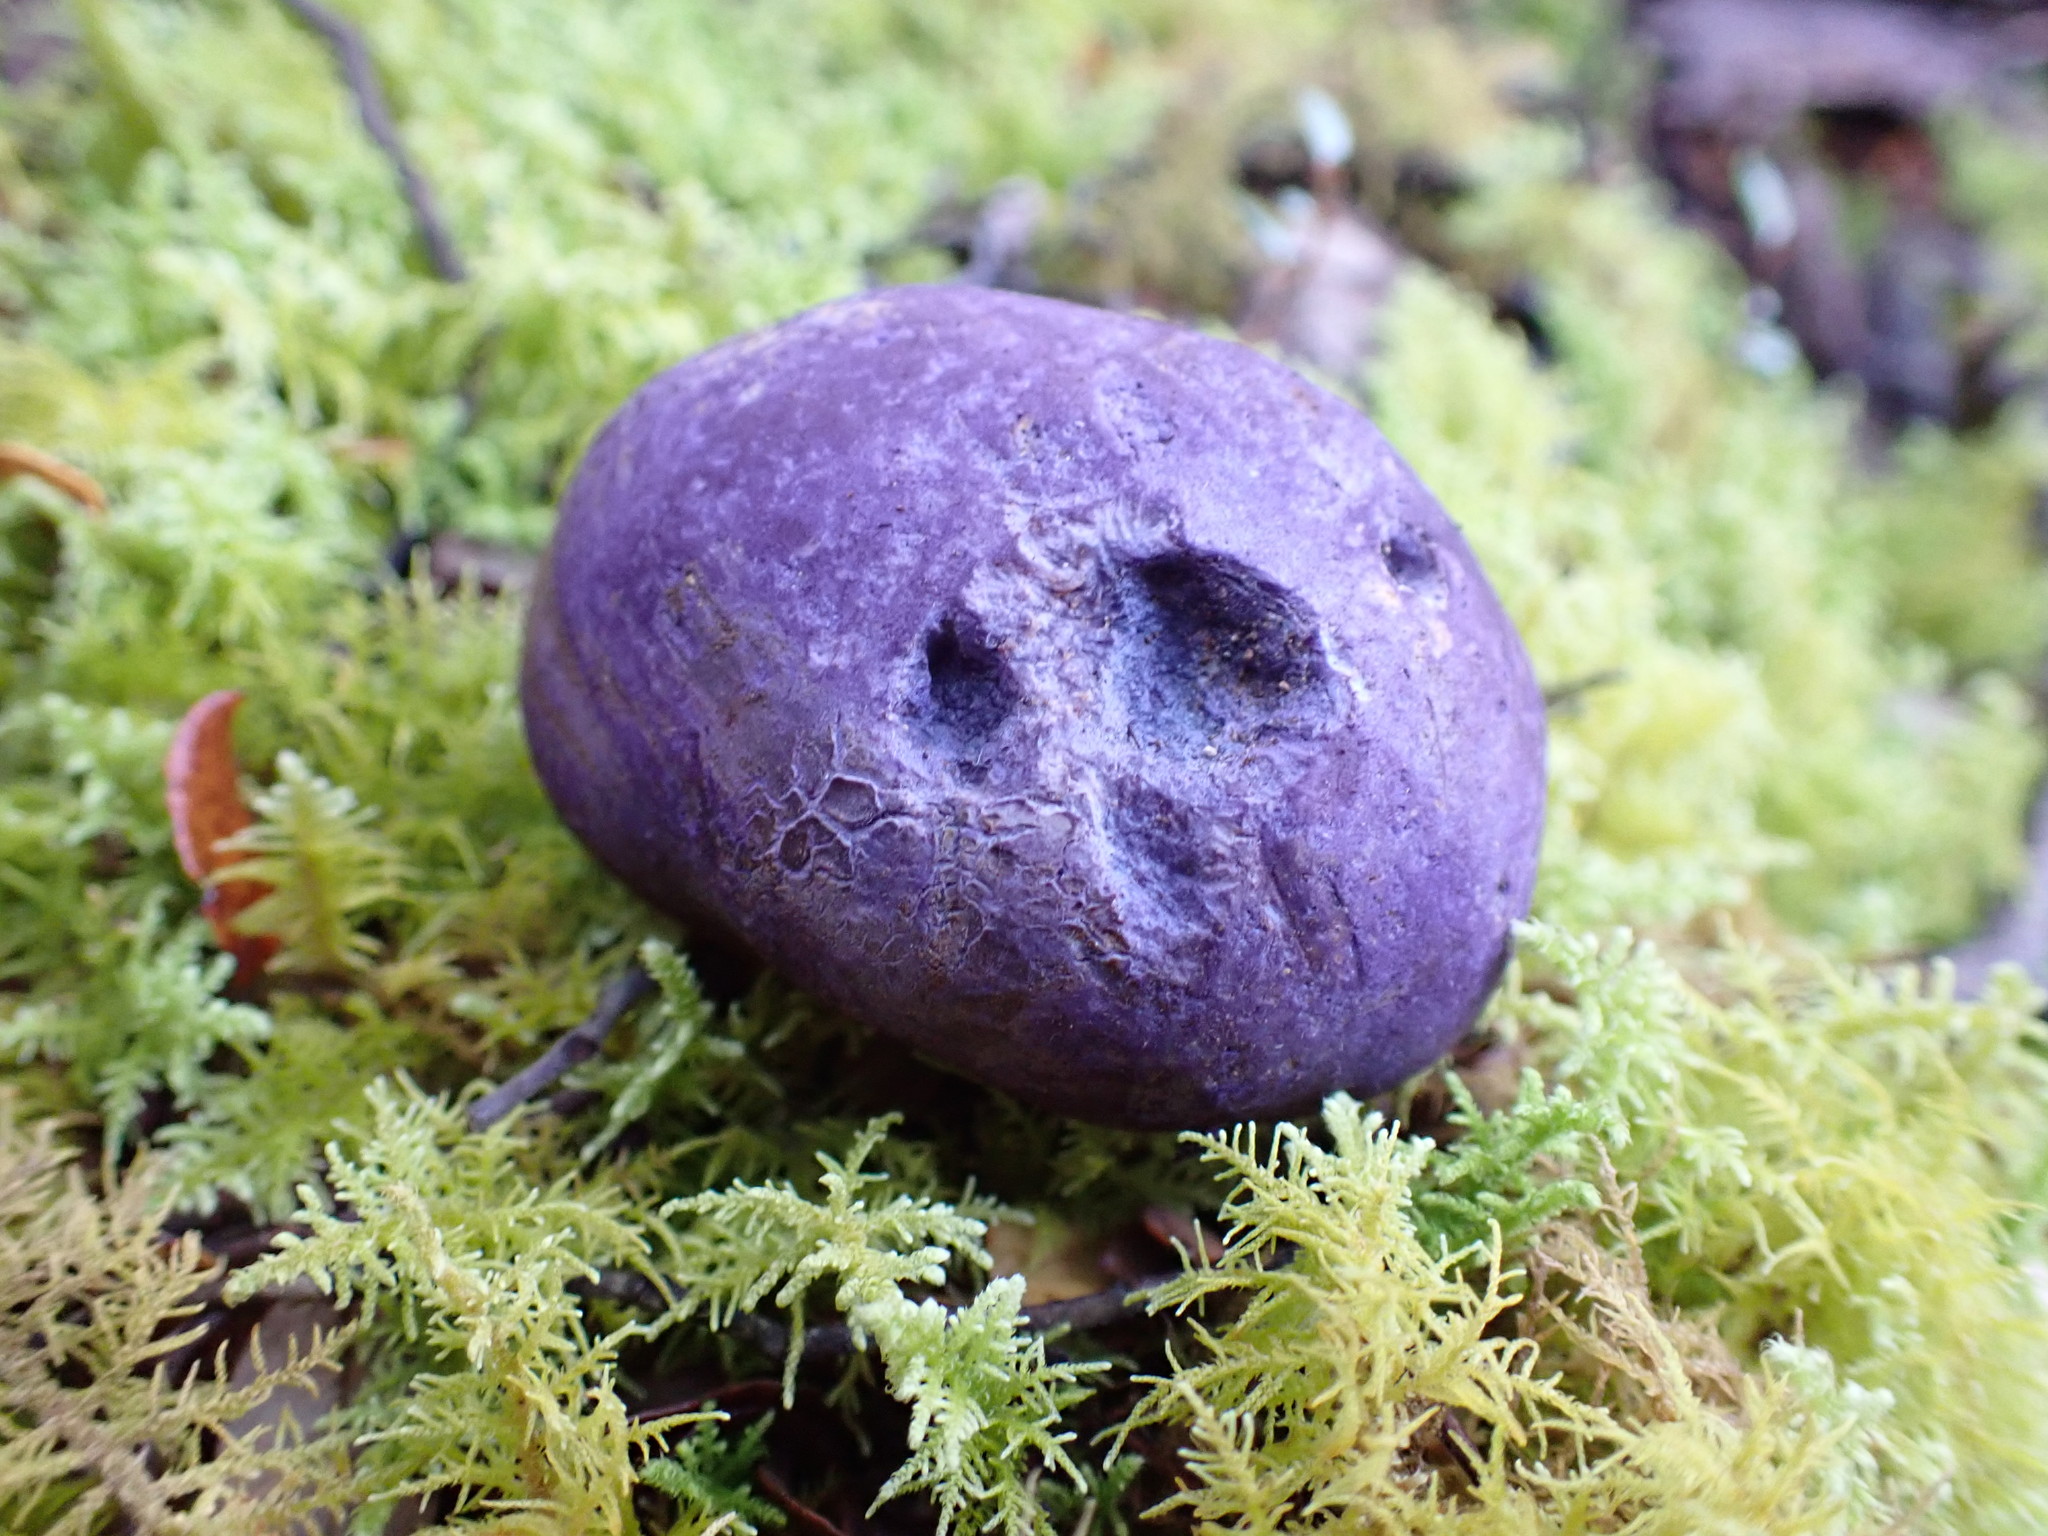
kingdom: Fungi
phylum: Basidiomycota
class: Agaricomycetes
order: Hysterangiales
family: Gallaceaceae
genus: Gallacea
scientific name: Gallacea scleroderma
